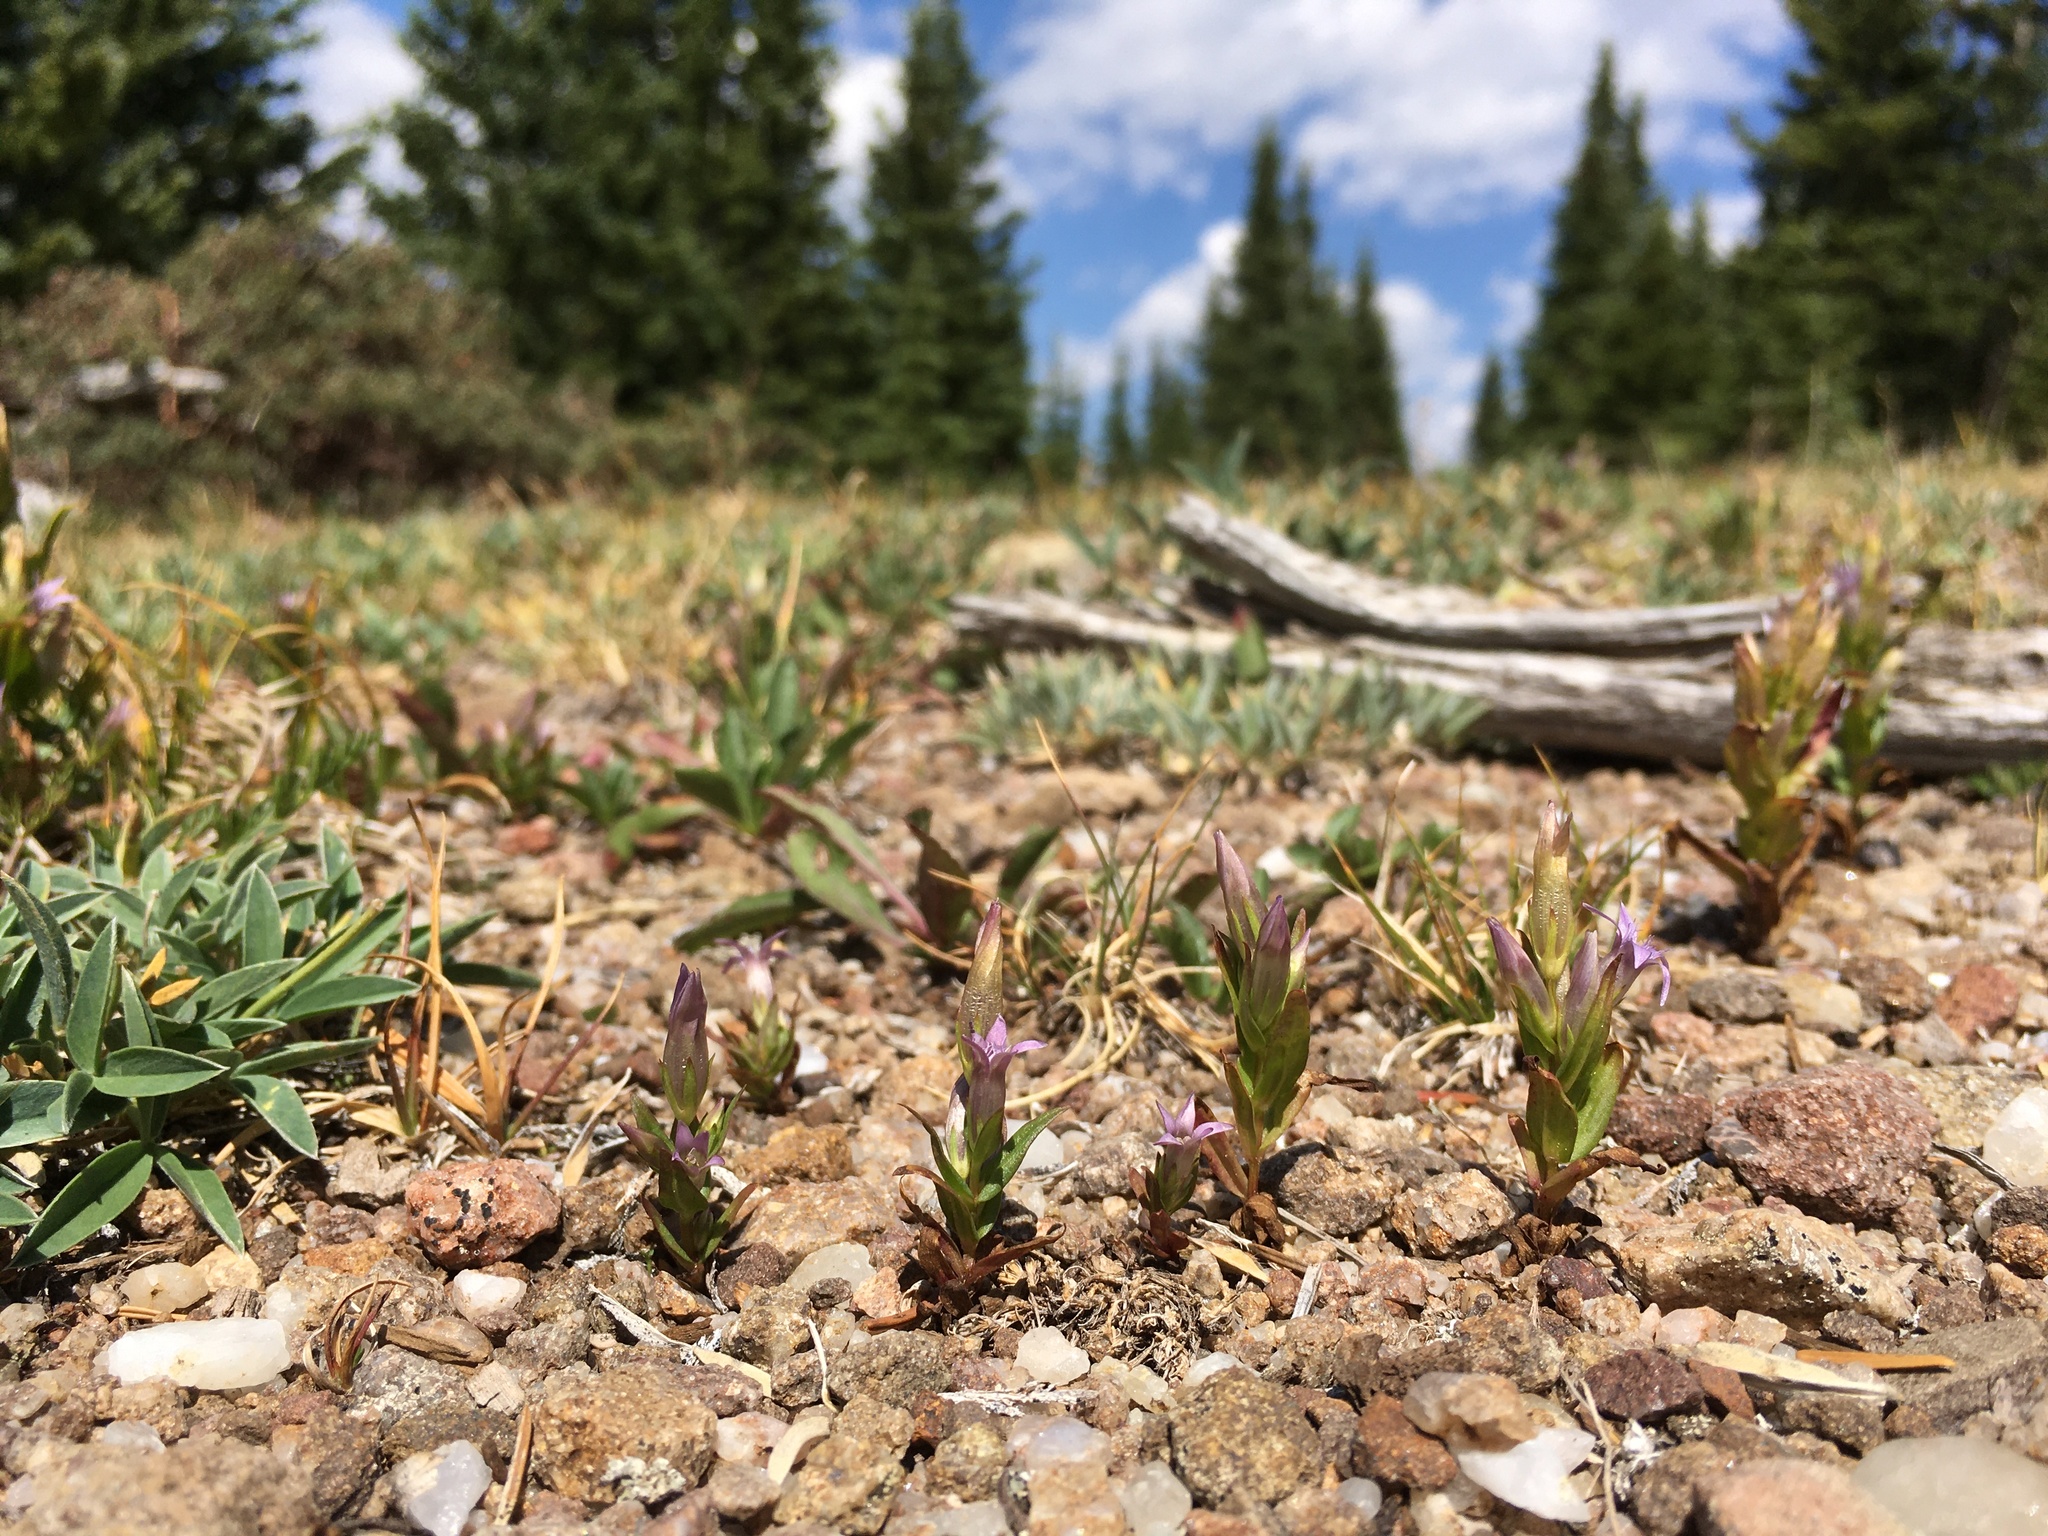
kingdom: Plantae
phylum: Tracheophyta
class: Magnoliopsida
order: Gentianales
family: Gentianaceae
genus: Gentianella
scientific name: Gentianella amarella
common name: Autumn gentian
